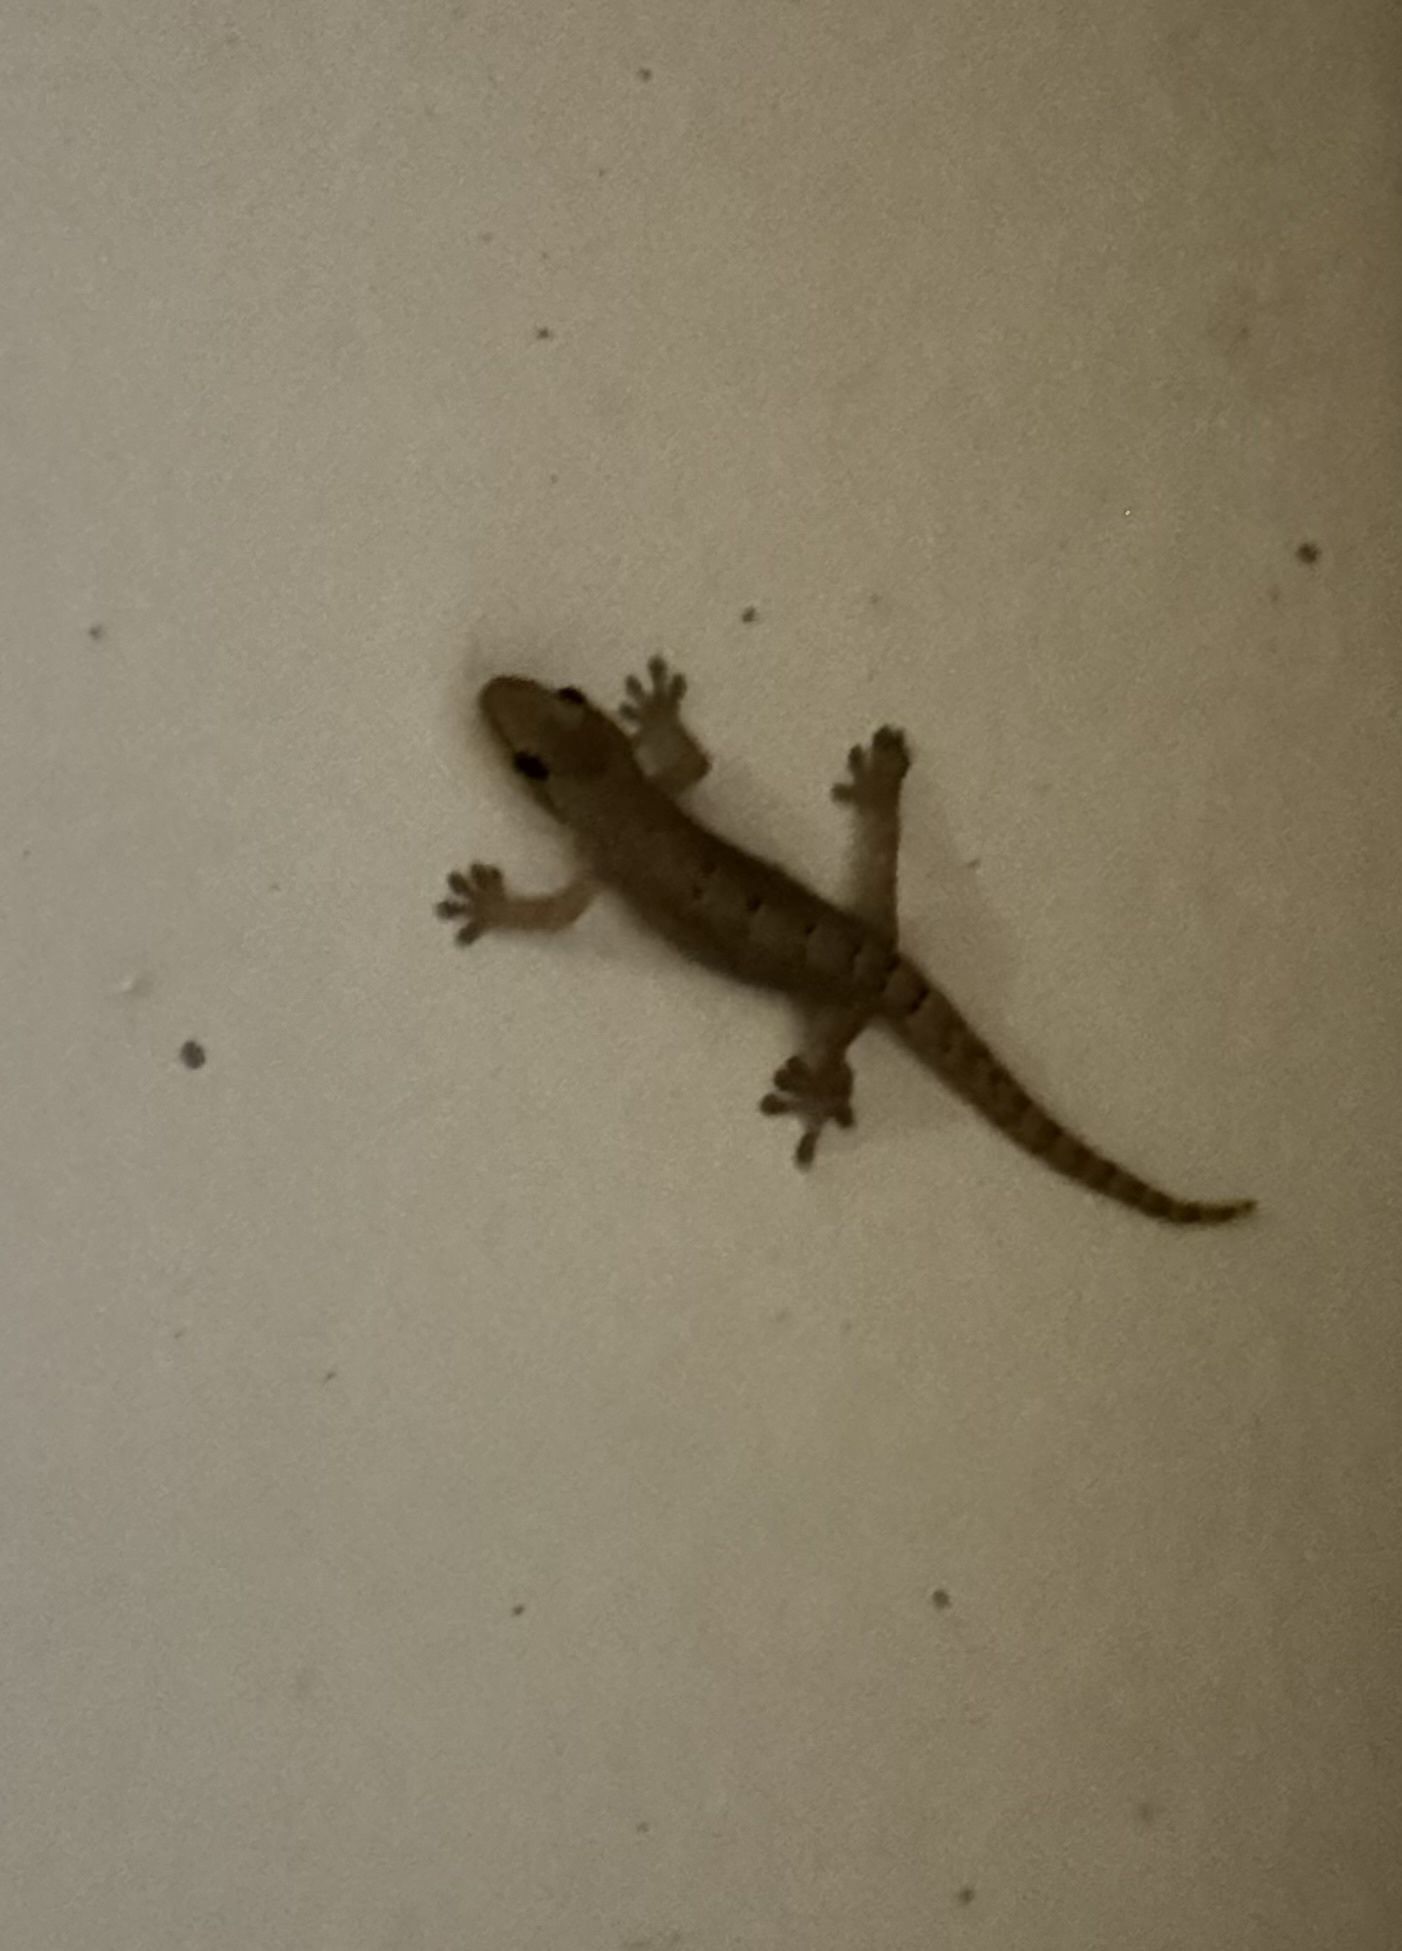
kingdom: Animalia
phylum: Chordata
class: Squamata
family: Gekkonidae
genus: Lepidodactylus
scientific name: Lepidodactylus lugubris
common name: Mourning gecko
